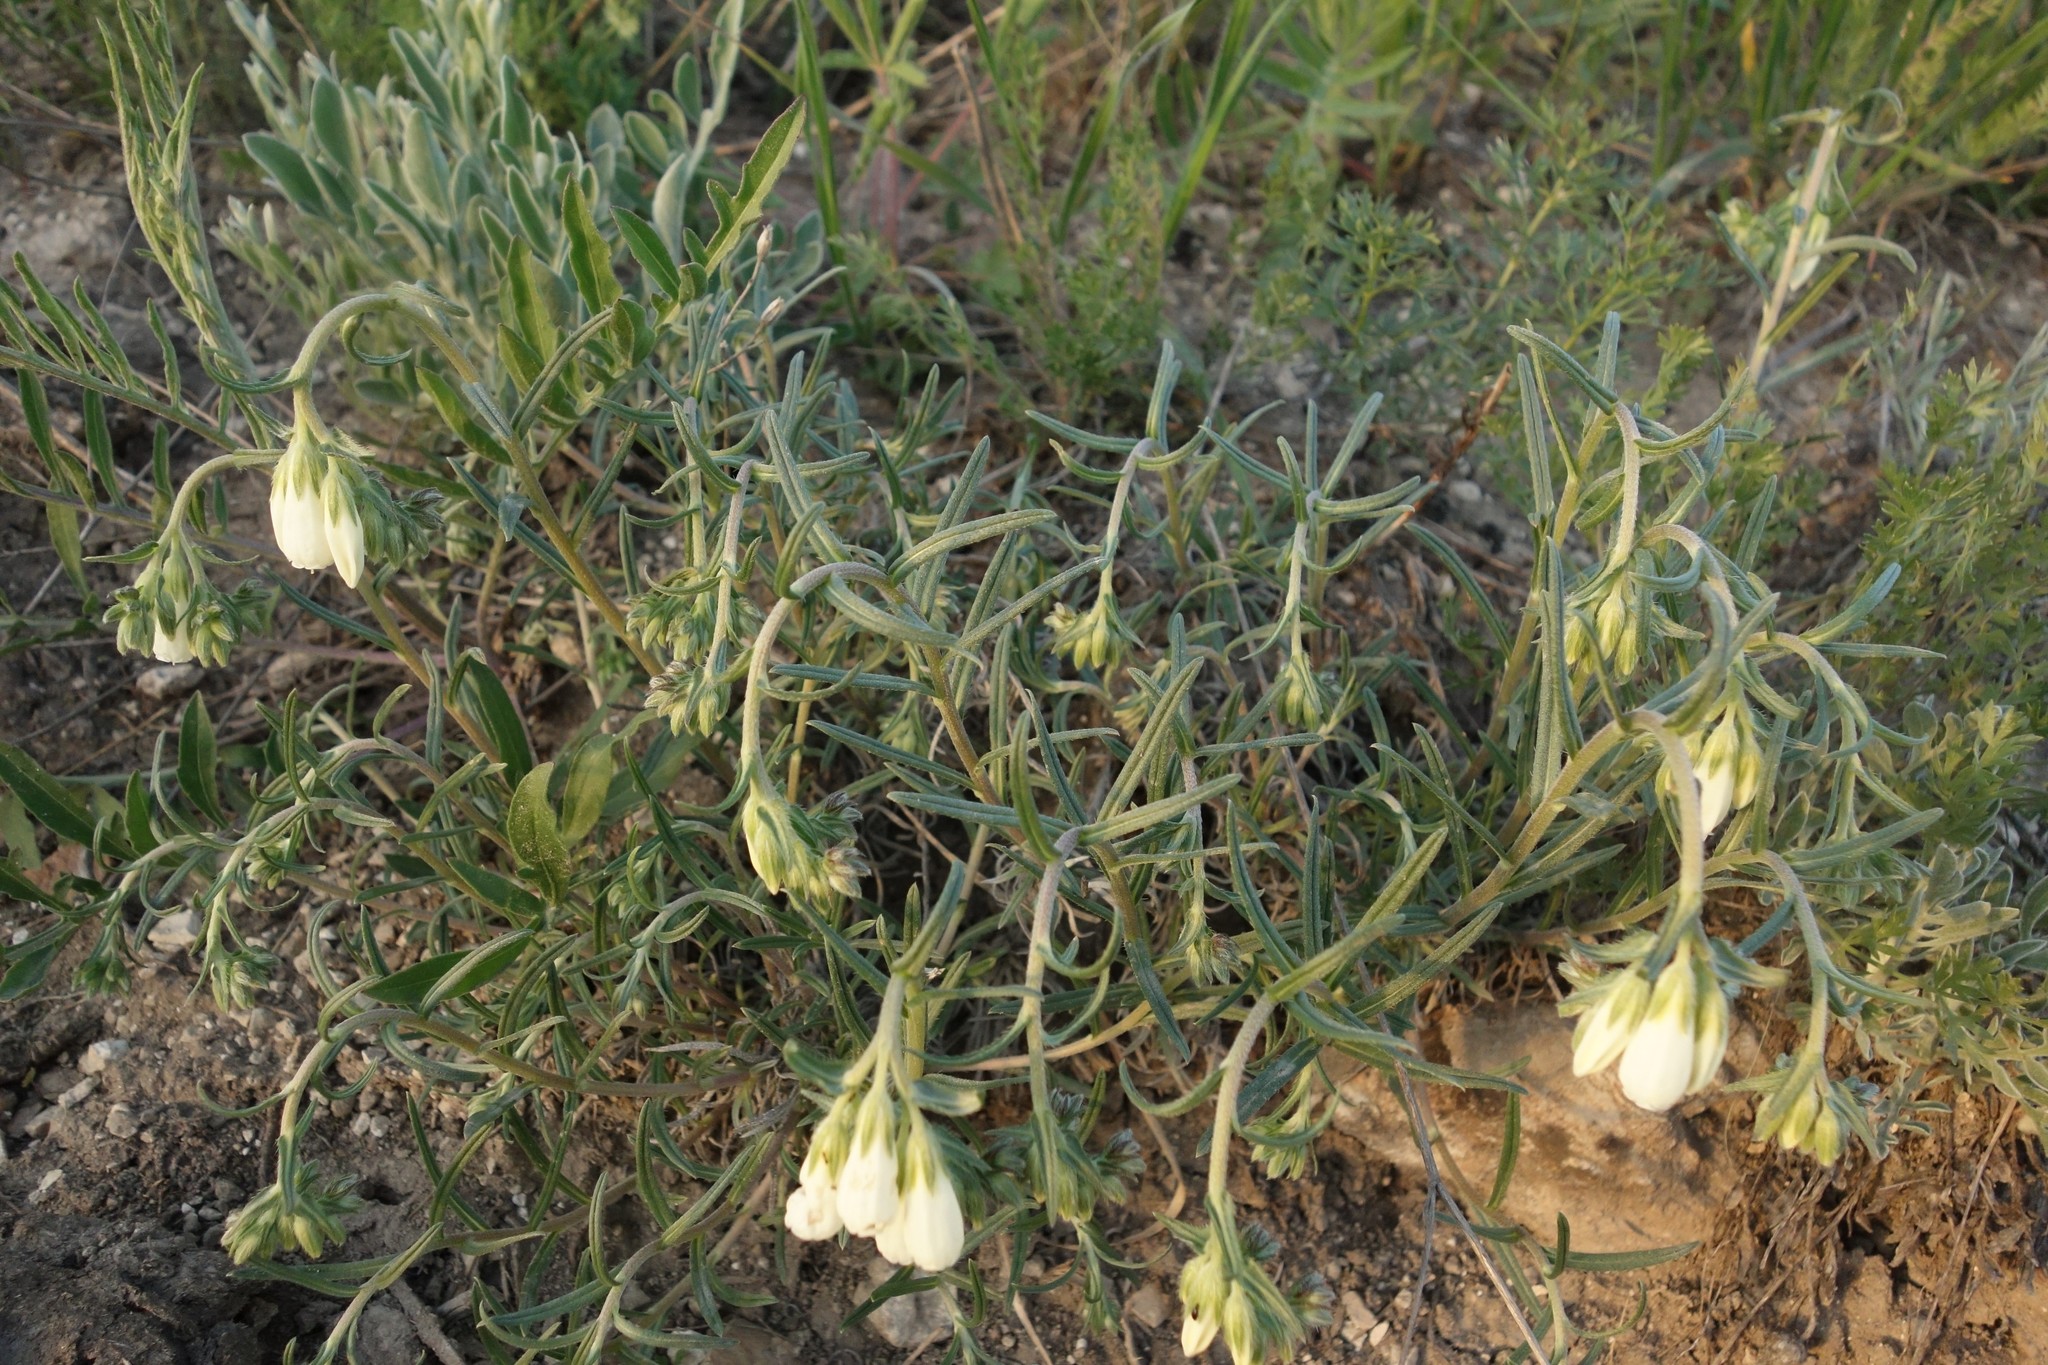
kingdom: Plantae
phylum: Tracheophyta
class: Magnoliopsida
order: Boraginales
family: Boraginaceae
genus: Onosma
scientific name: Onosma simplicissima
